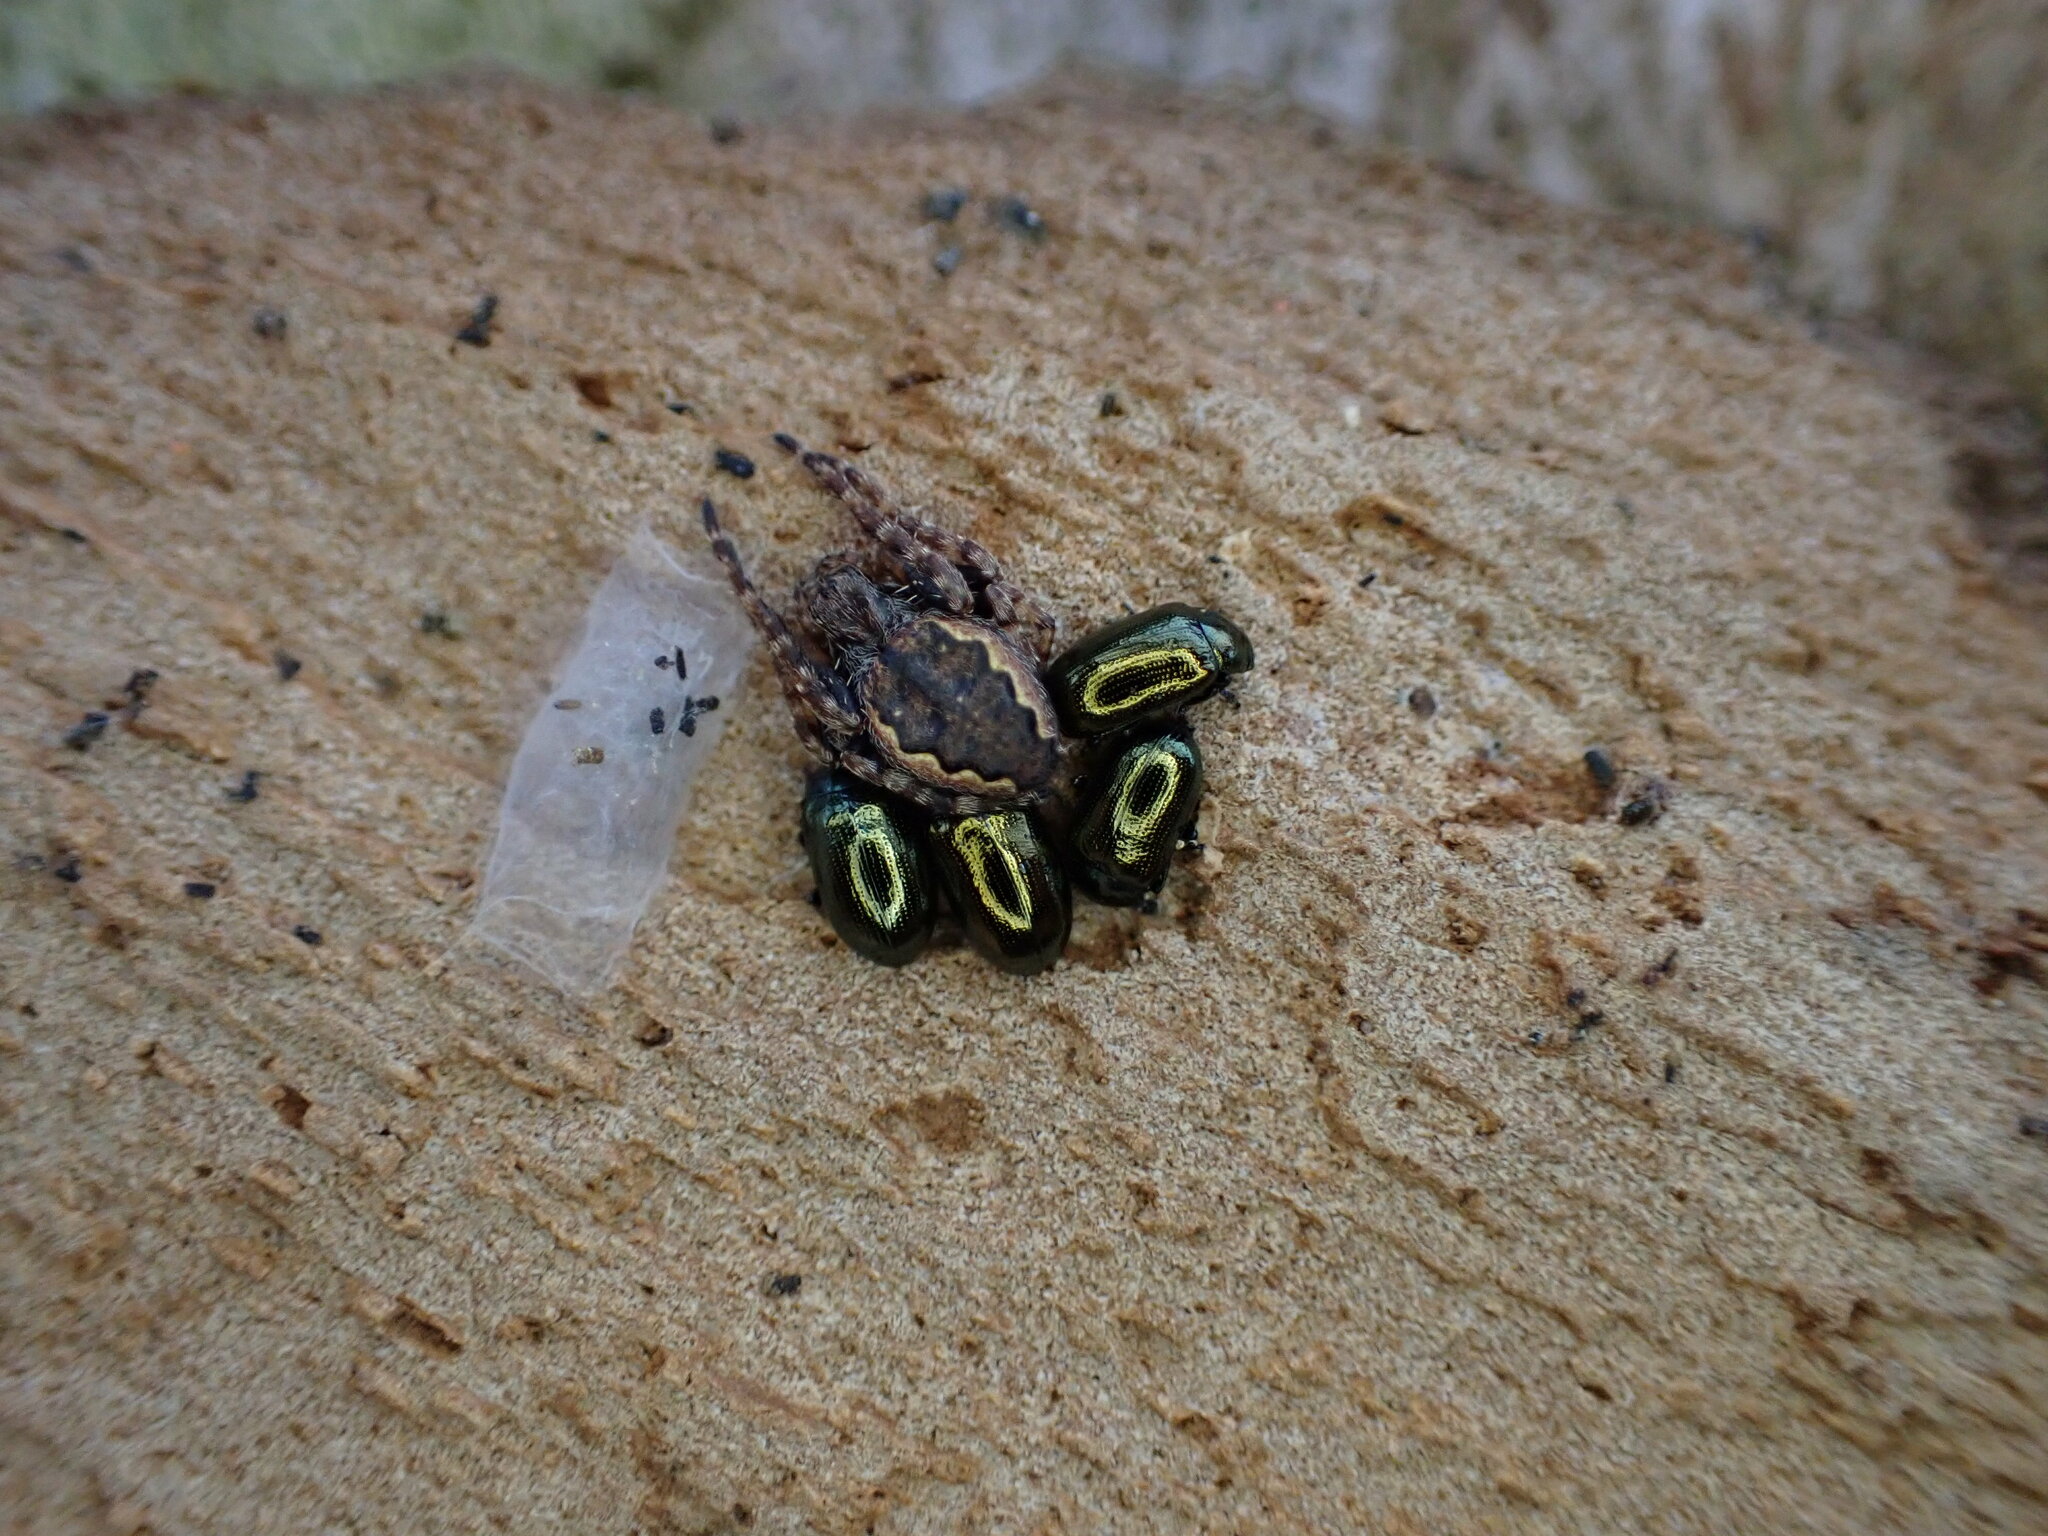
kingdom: Animalia
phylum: Arthropoda
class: Arachnida
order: Araneae
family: Araneidae
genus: Nuctenea
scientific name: Nuctenea umbratica
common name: Toad spider
